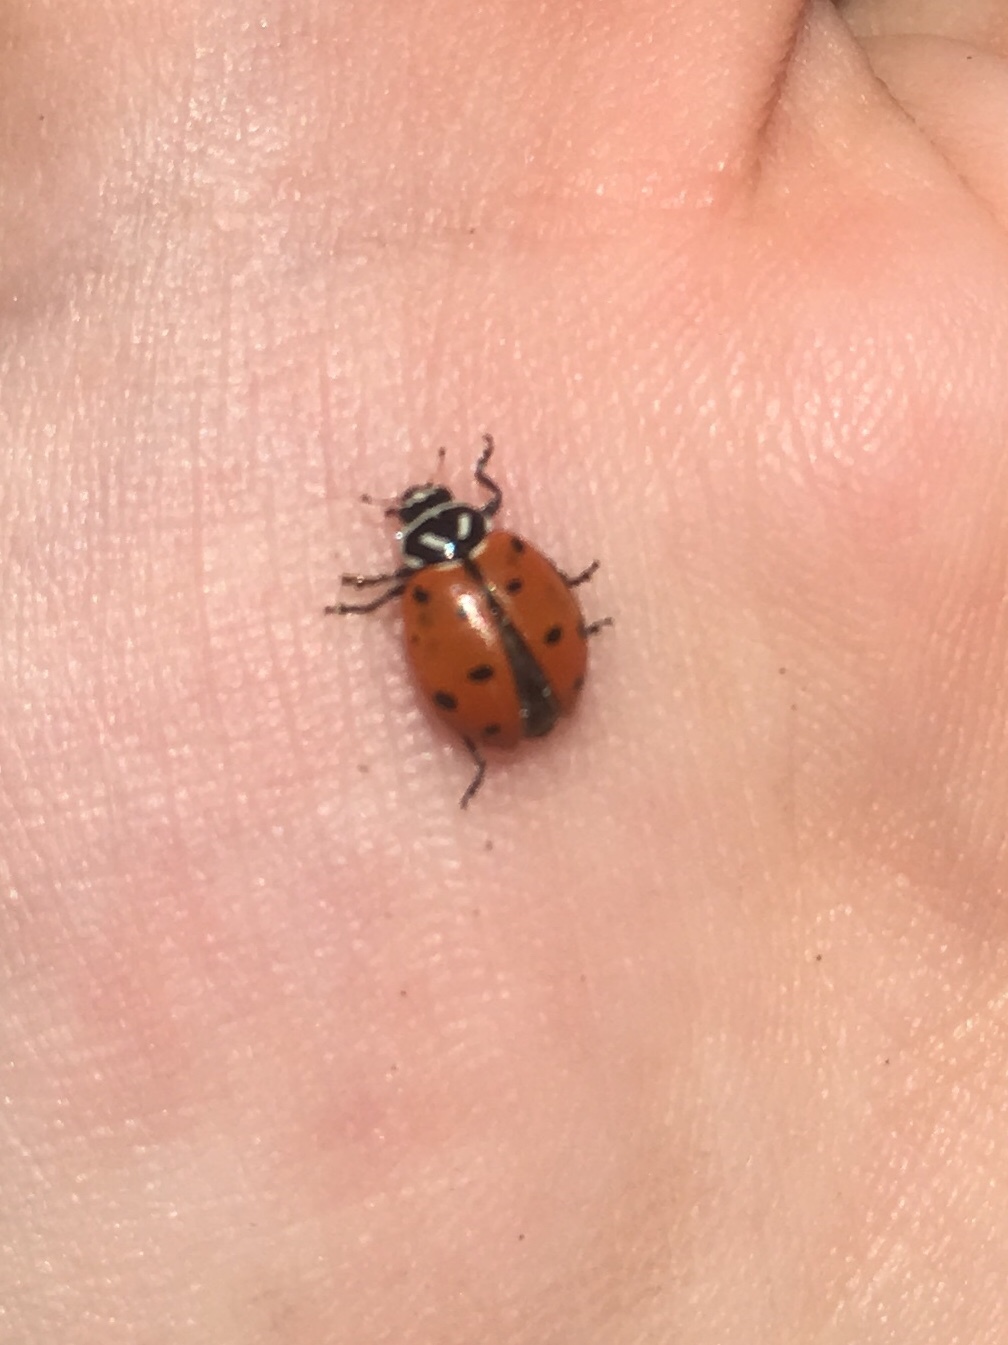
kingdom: Animalia
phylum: Arthropoda
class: Insecta
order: Coleoptera
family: Coccinellidae
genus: Hippodamia
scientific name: Hippodamia convergens
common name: Convergent lady beetle
